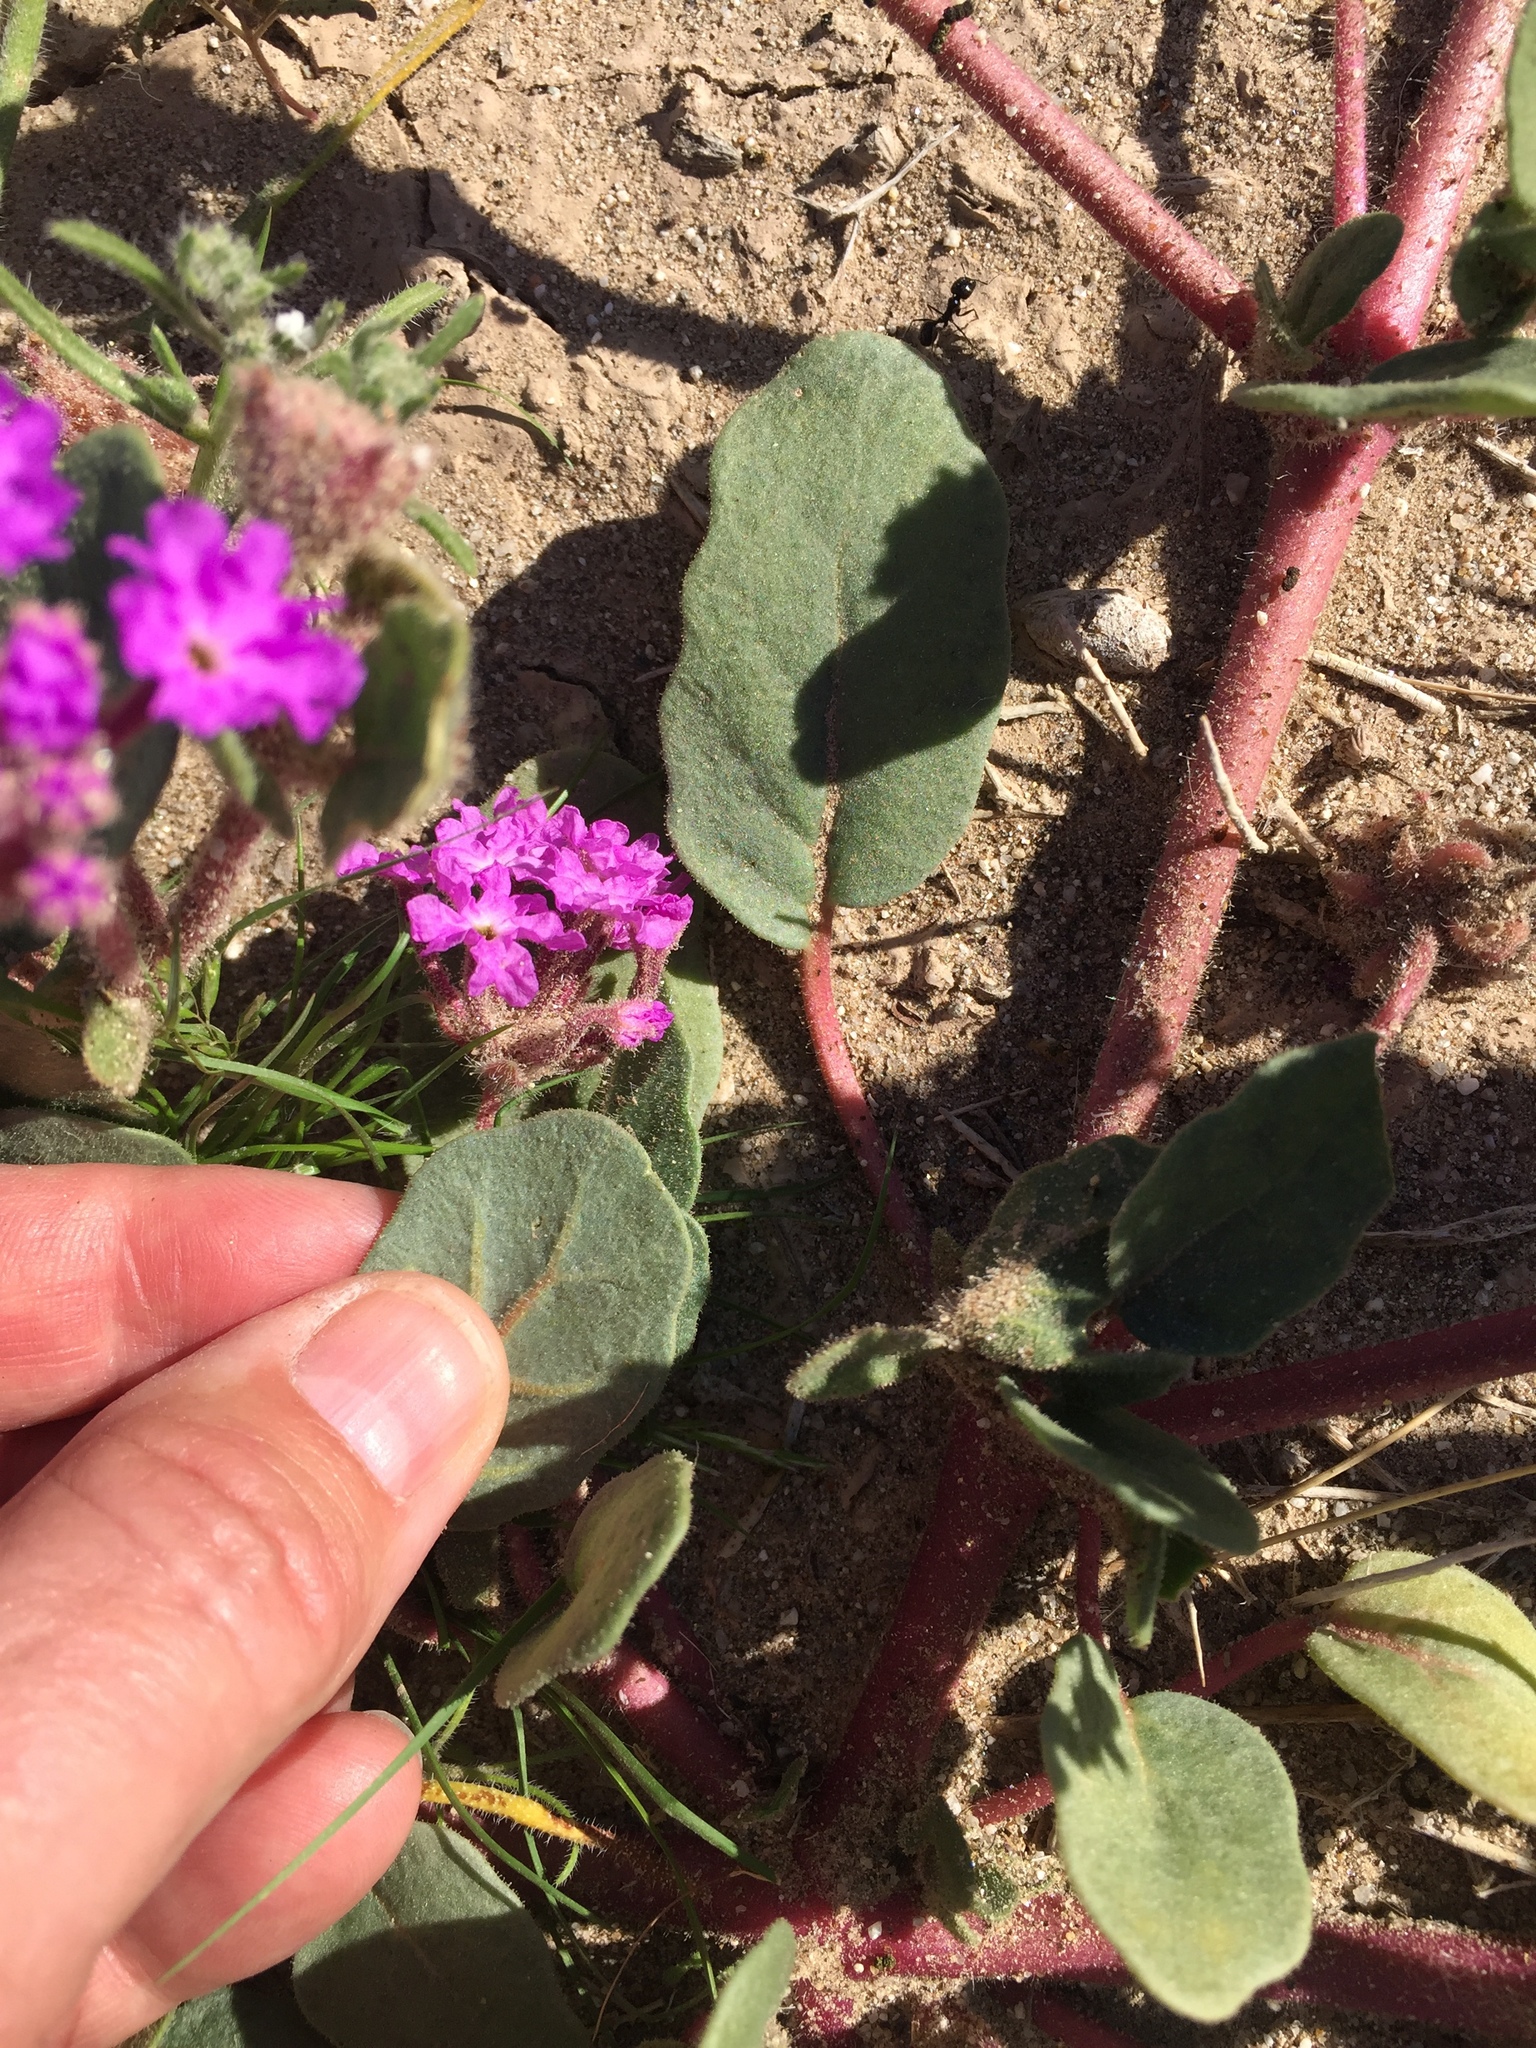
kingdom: Plantae
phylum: Tracheophyta
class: Magnoliopsida
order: Caryophyllales
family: Nyctaginaceae
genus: Abronia
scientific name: Abronia villosa
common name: Desert sand-verbena
